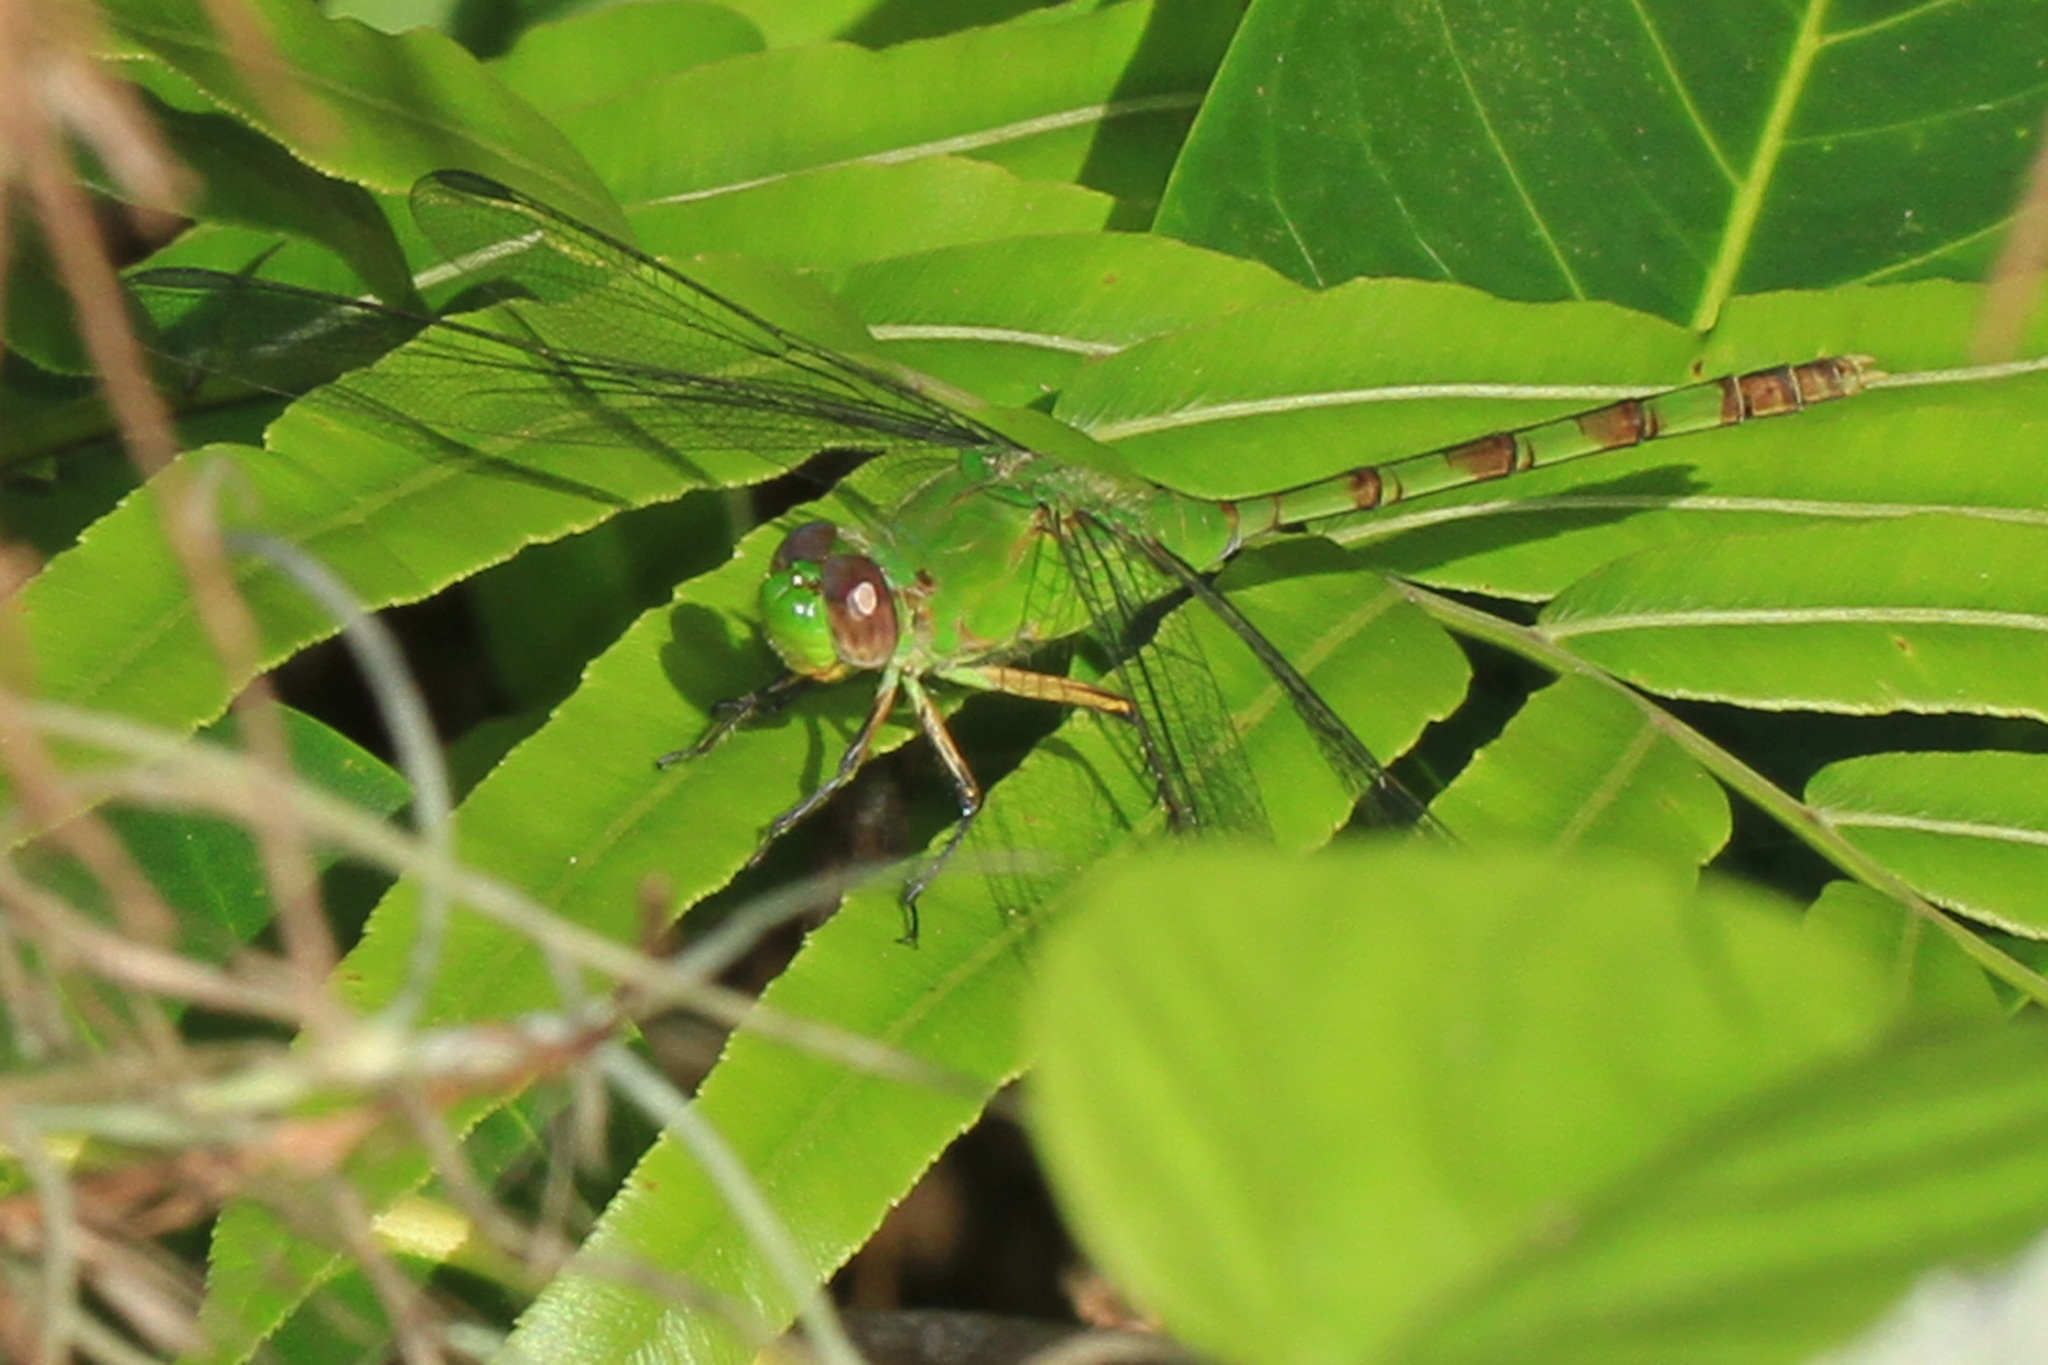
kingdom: Animalia
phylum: Arthropoda
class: Insecta
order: Odonata
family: Libellulidae
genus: Erythemis
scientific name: Erythemis vesiculosa
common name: Great pondhawk
